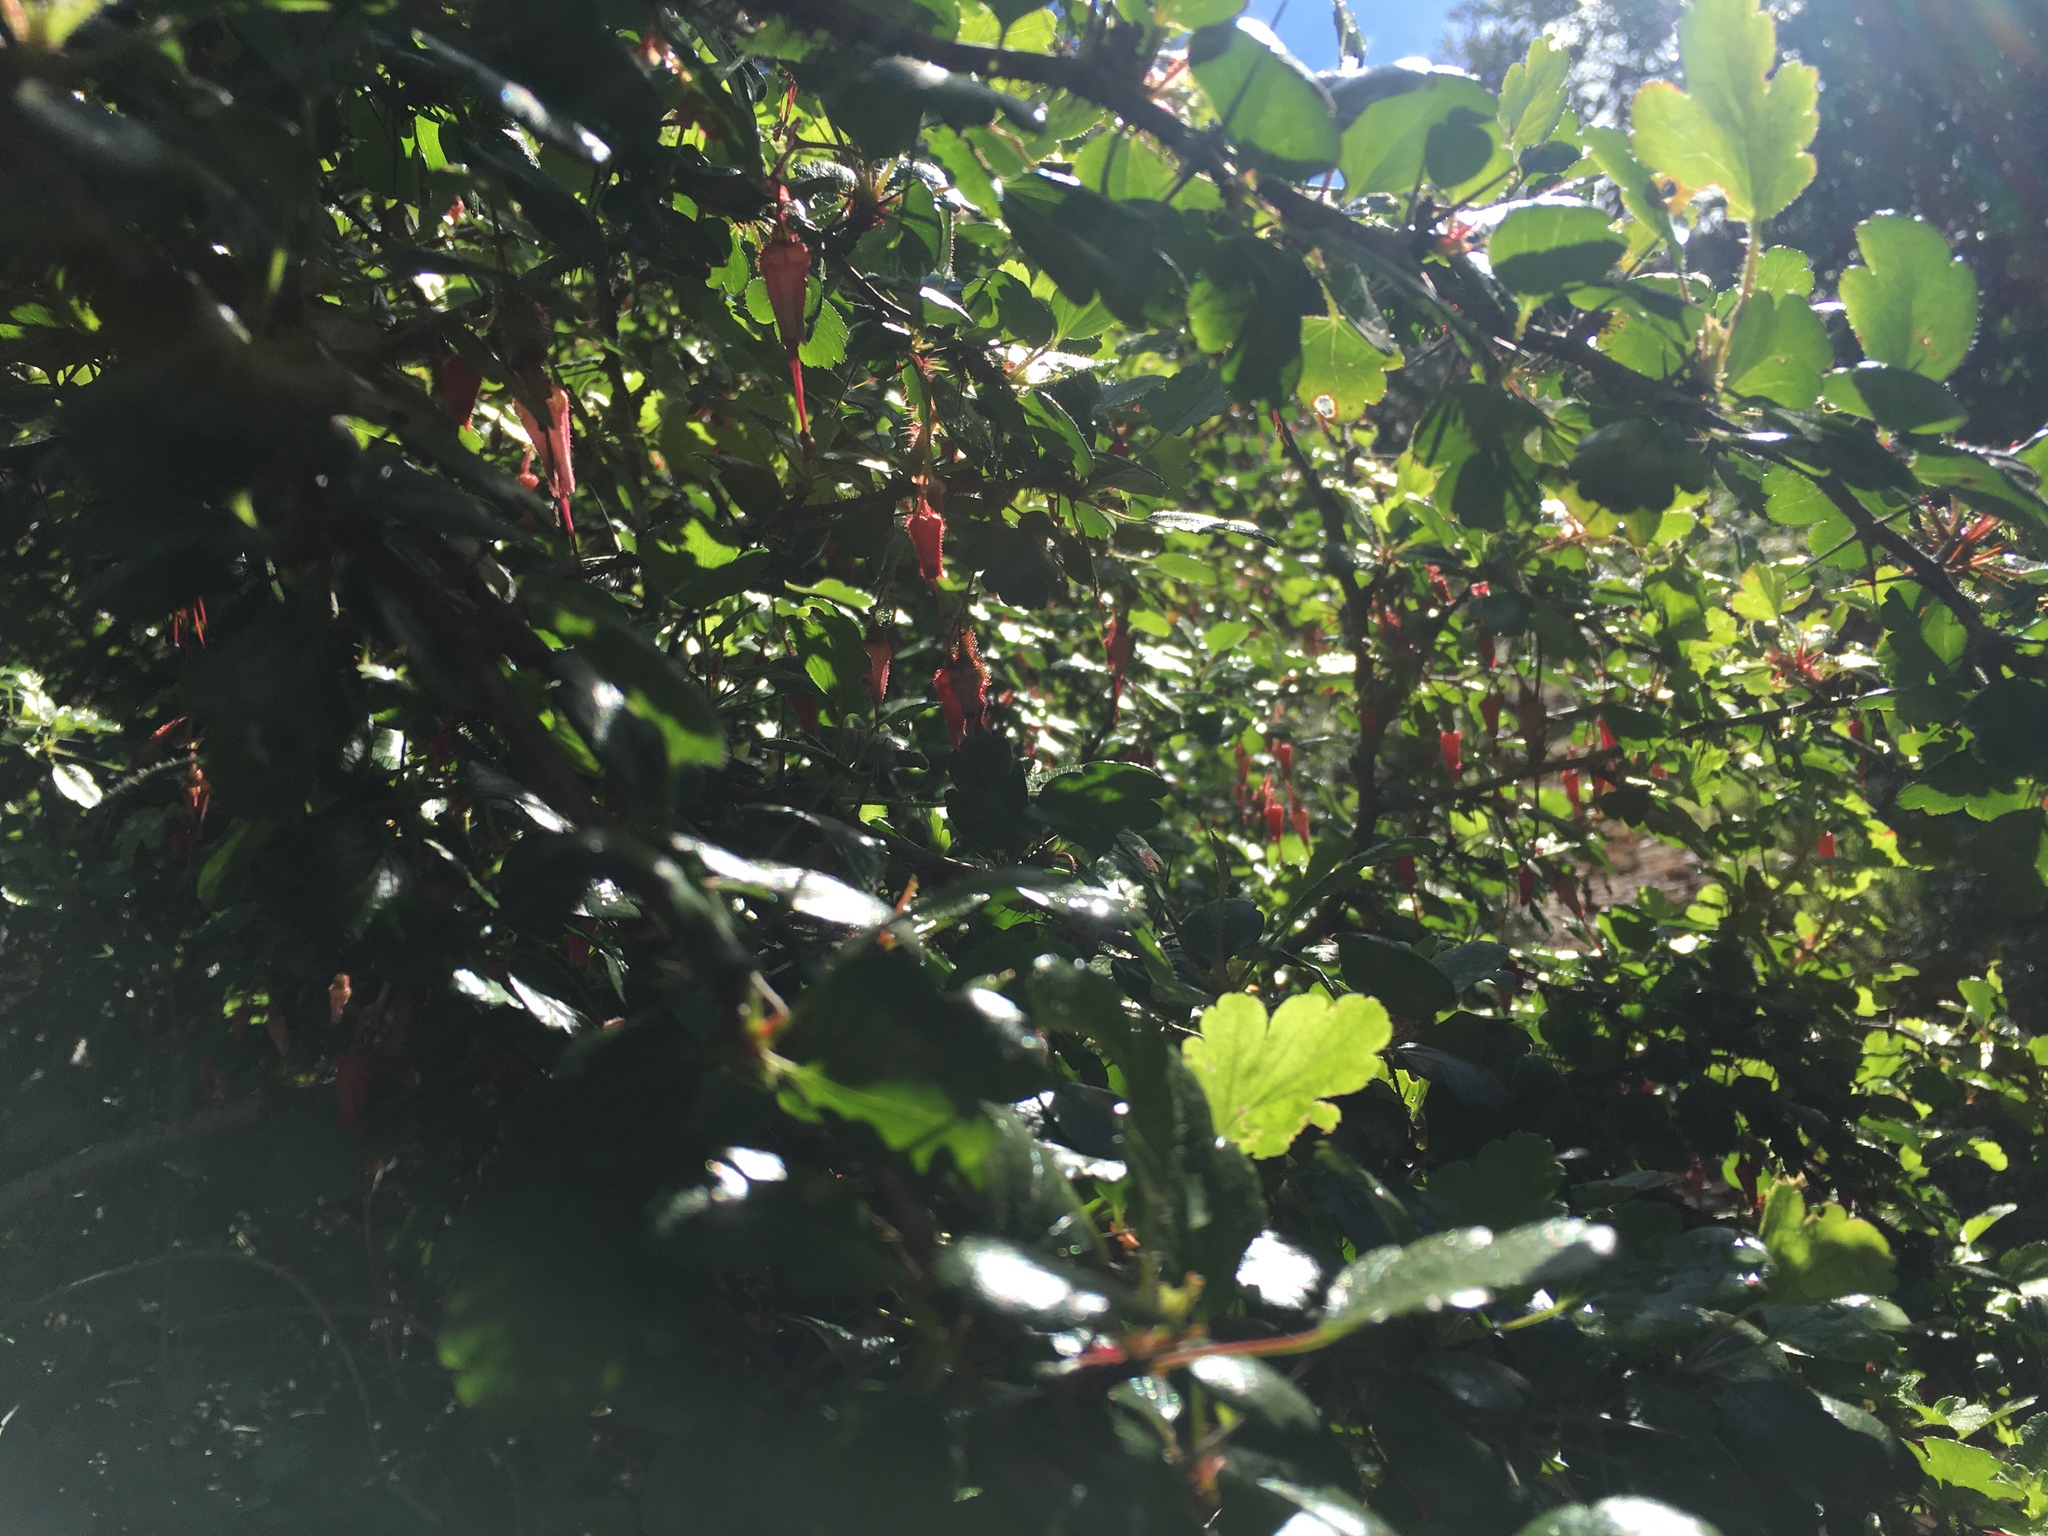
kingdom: Plantae
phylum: Tracheophyta
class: Magnoliopsida
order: Saxifragales
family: Grossulariaceae
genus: Ribes
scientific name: Ribes speciosum
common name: Fuchsia-flower gooseberry
